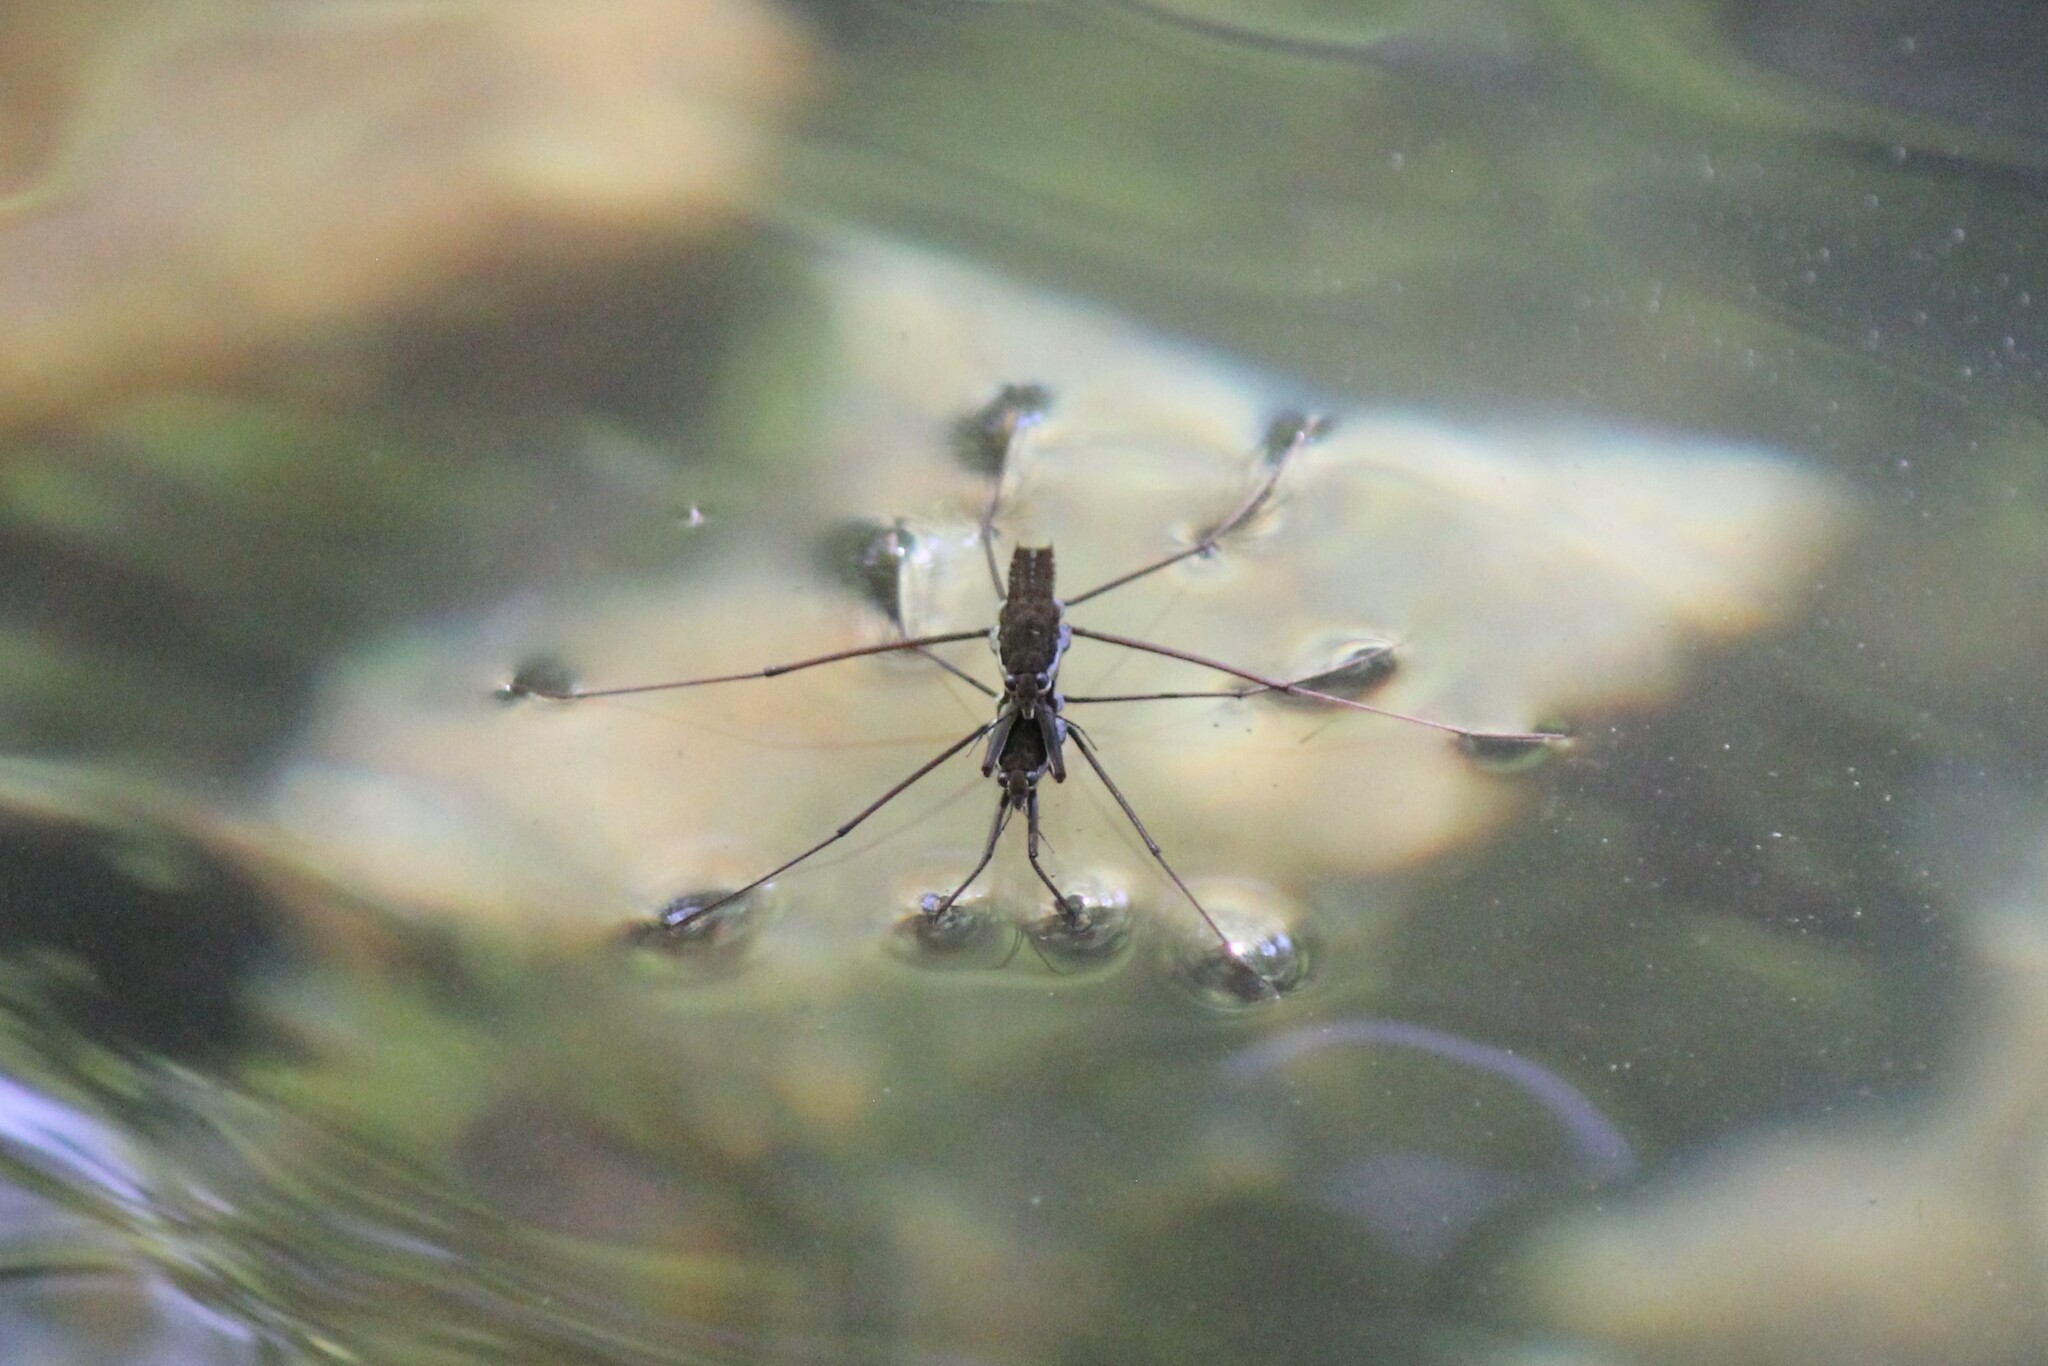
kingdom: Animalia
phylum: Arthropoda
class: Insecta
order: Hemiptera
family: Gerridae
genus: Aquarius
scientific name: Aquarius remigis
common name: Common water strider
